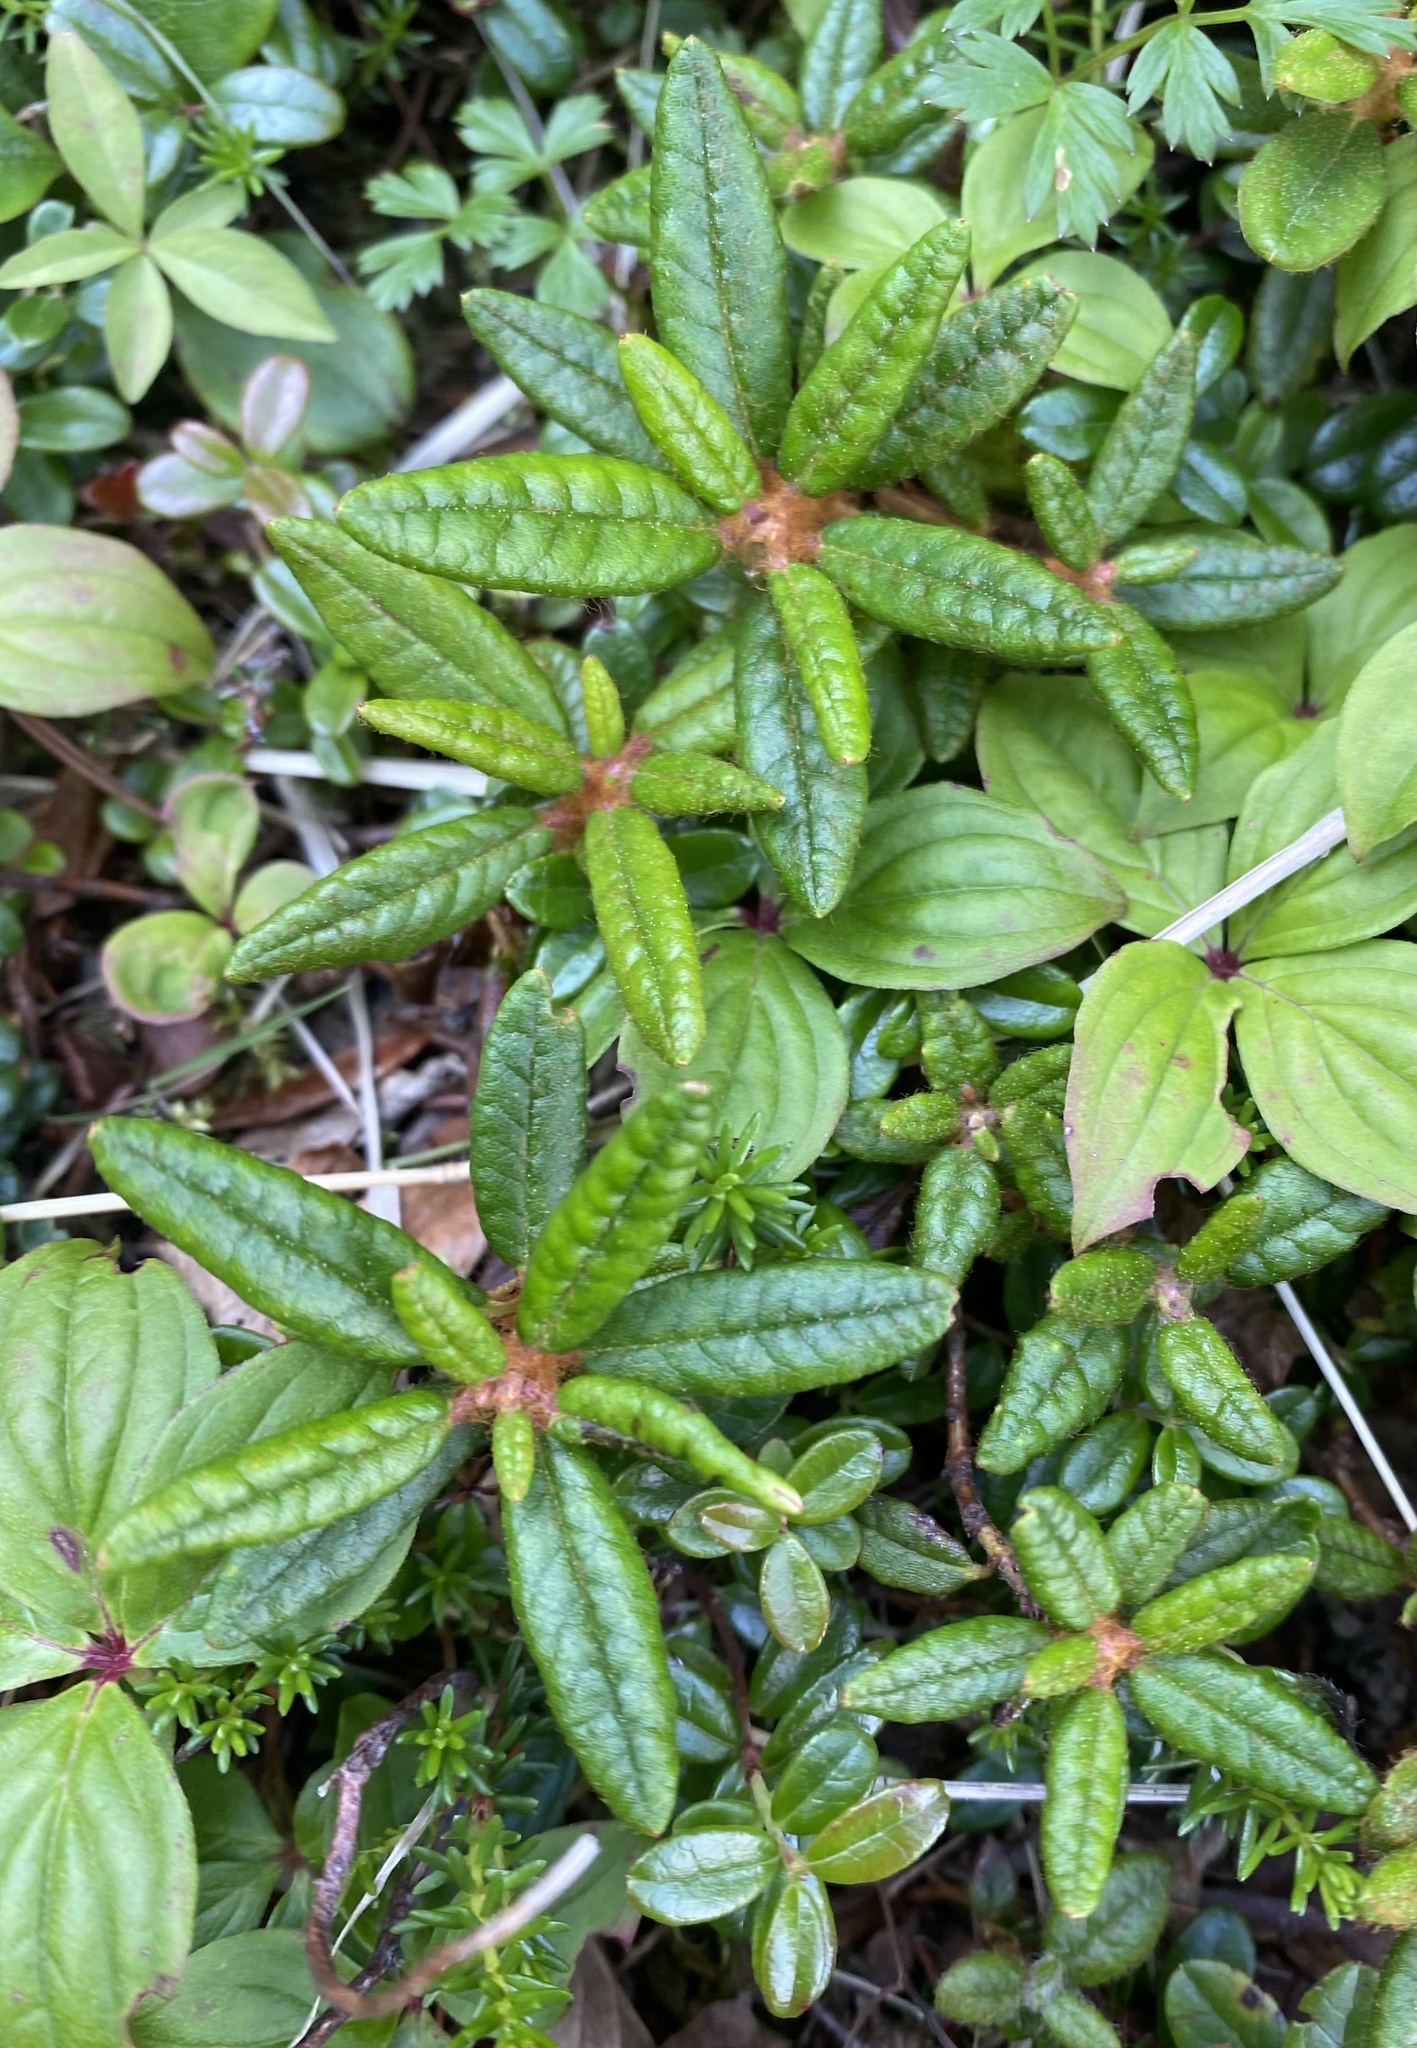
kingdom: Plantae
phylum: Tracheophyta
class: Magnoliopsida
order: Ericales
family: Ericaceae
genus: Rhododendron
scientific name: Rhododendron tomentosum
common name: Marsh labrador tea
